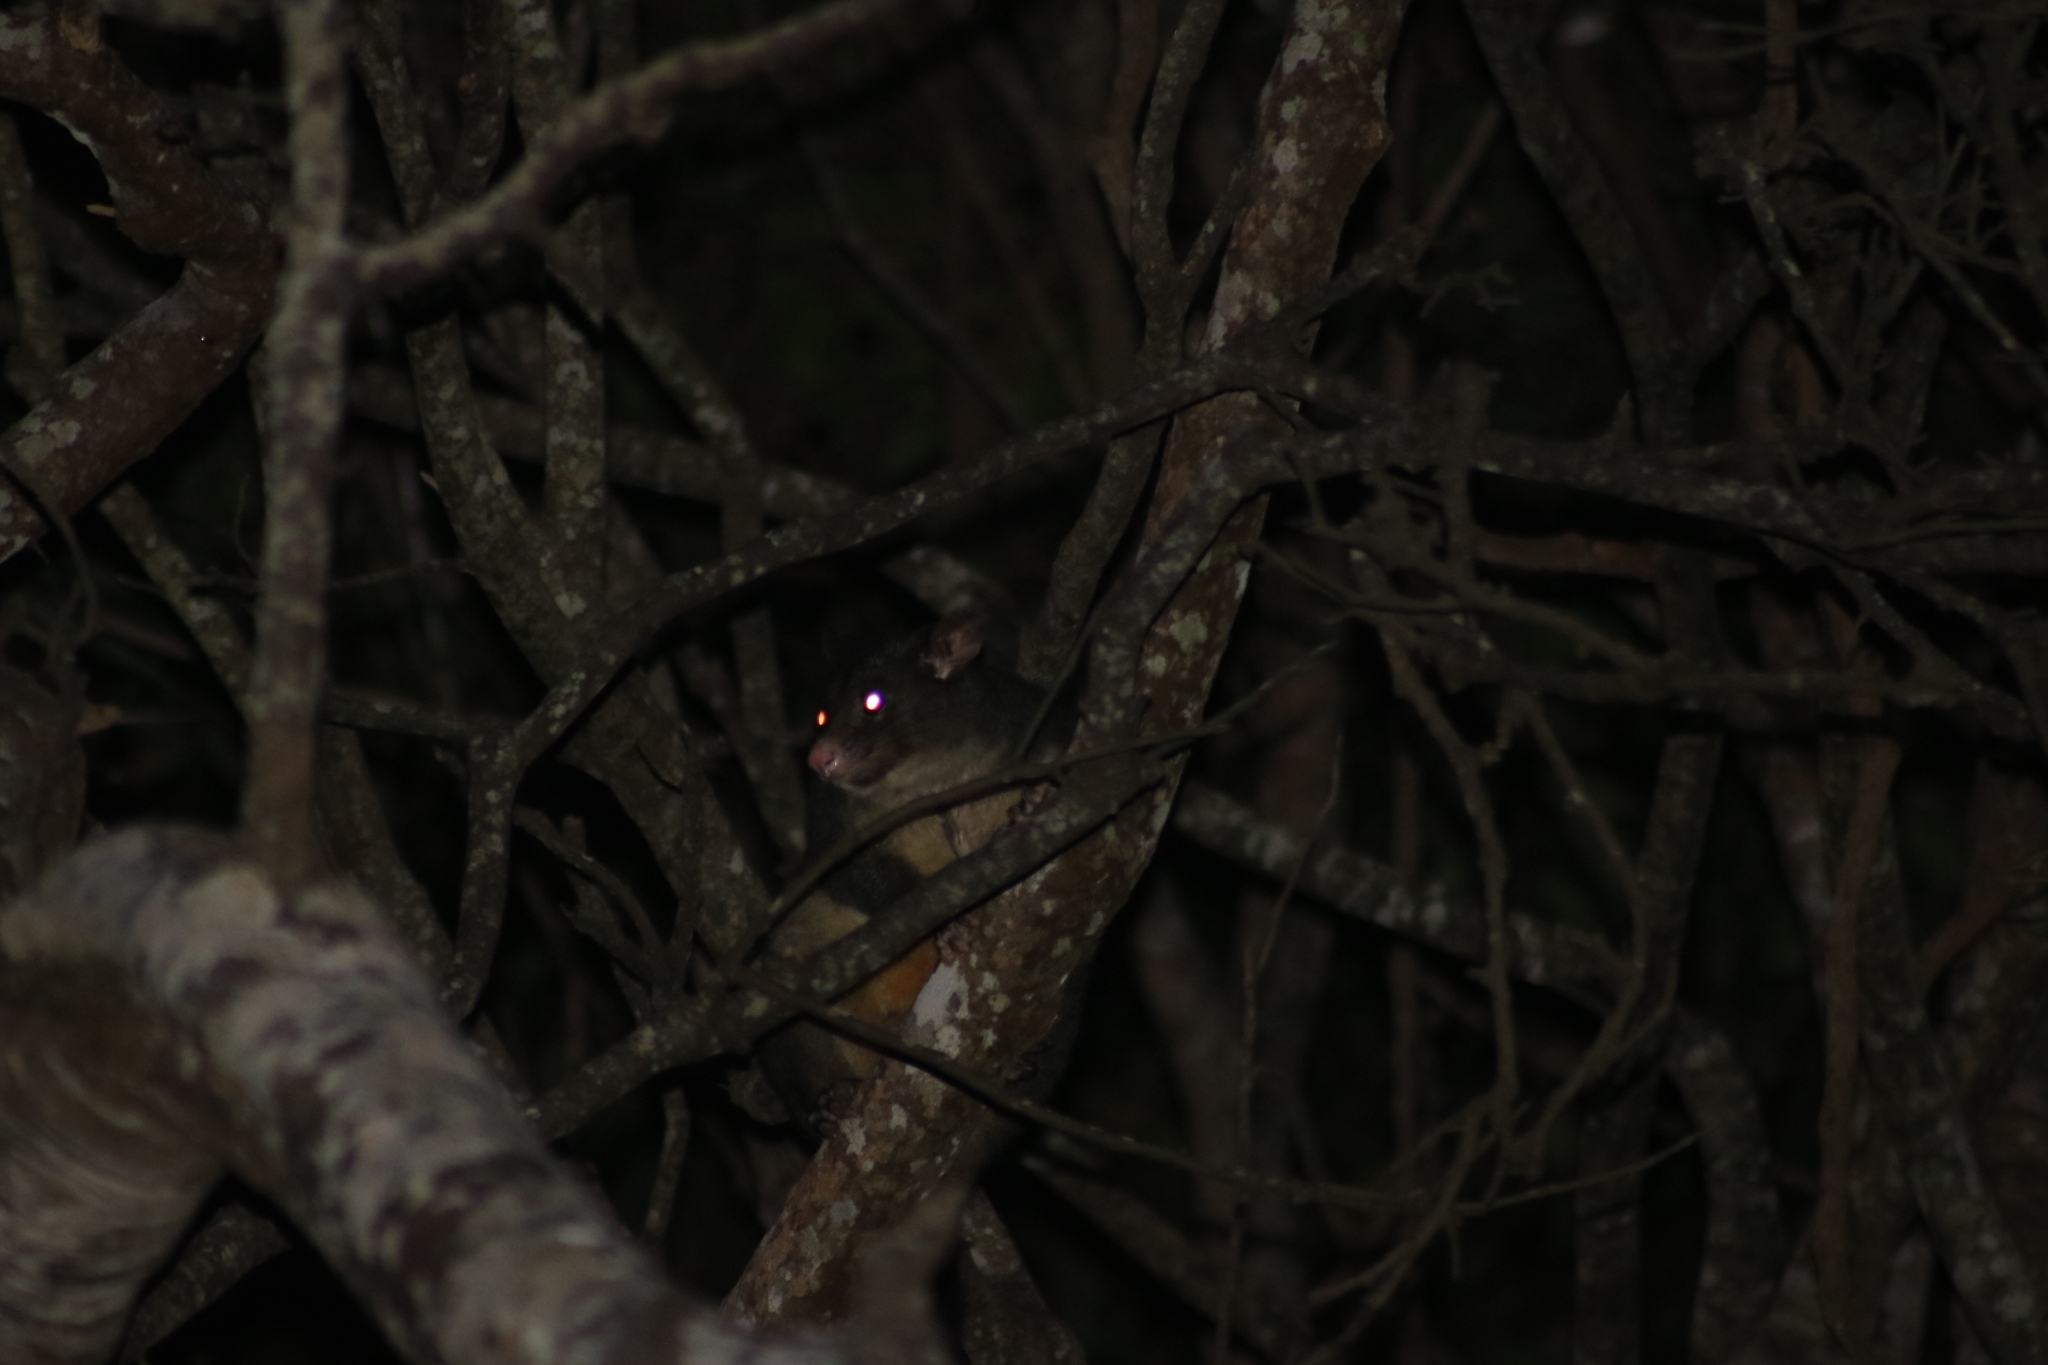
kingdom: Animalia
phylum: Chordata
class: Mammalia
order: Diprotodontia
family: Phalangeridae
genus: Trichosurus
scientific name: Trichosurus caninus
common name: Short-eared possum
